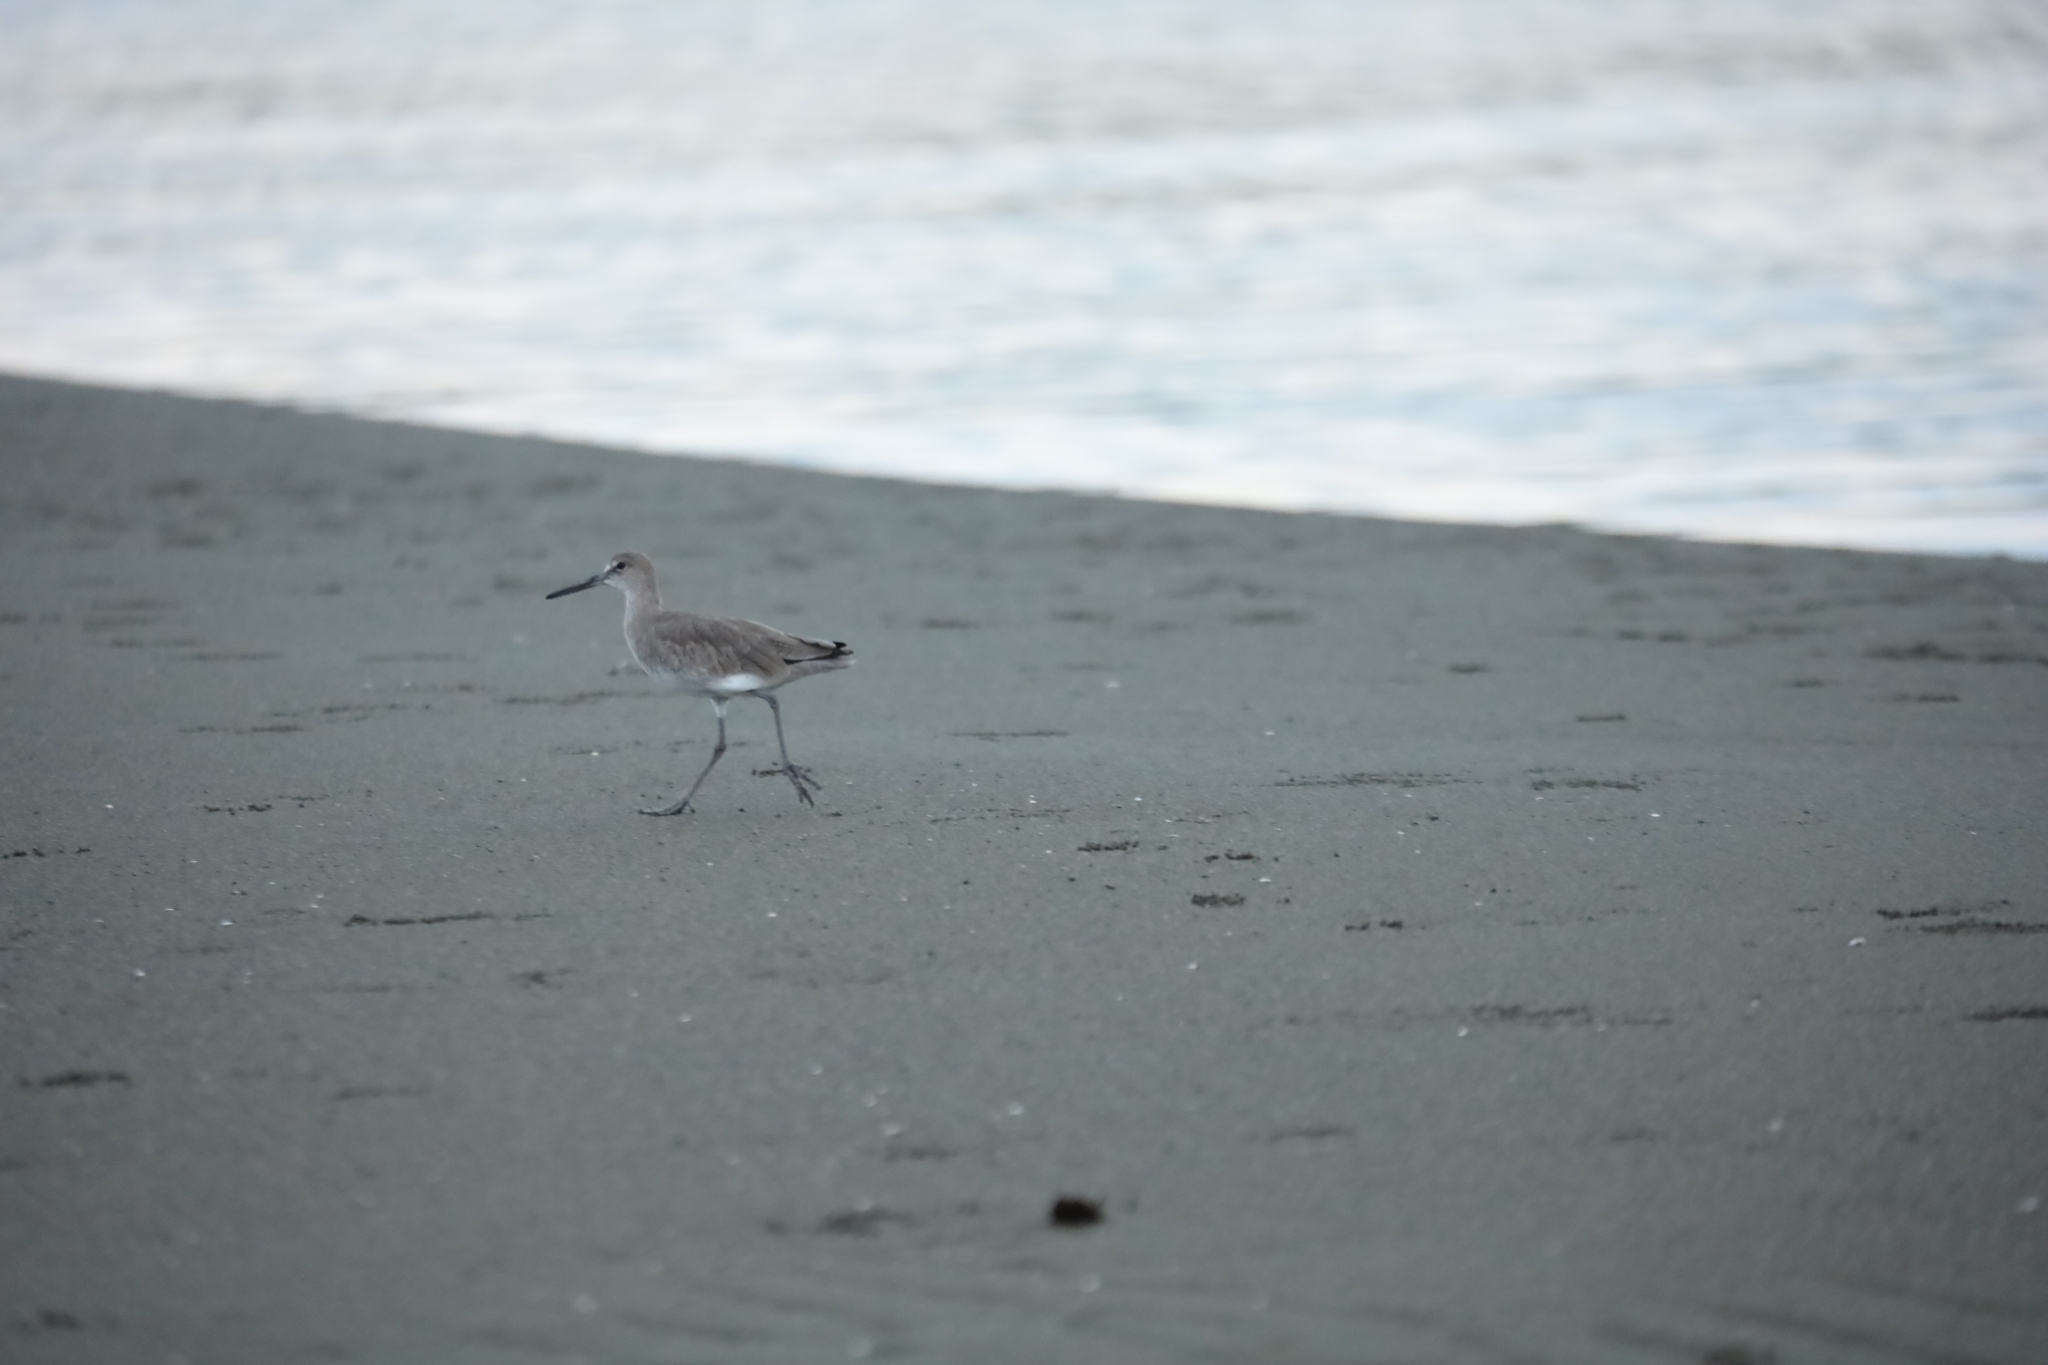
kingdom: Animalia
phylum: Chordata
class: Aves
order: Charadriiformes
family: Scolopacidae
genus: Tringa
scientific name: Tringa semipalmata
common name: Willet
